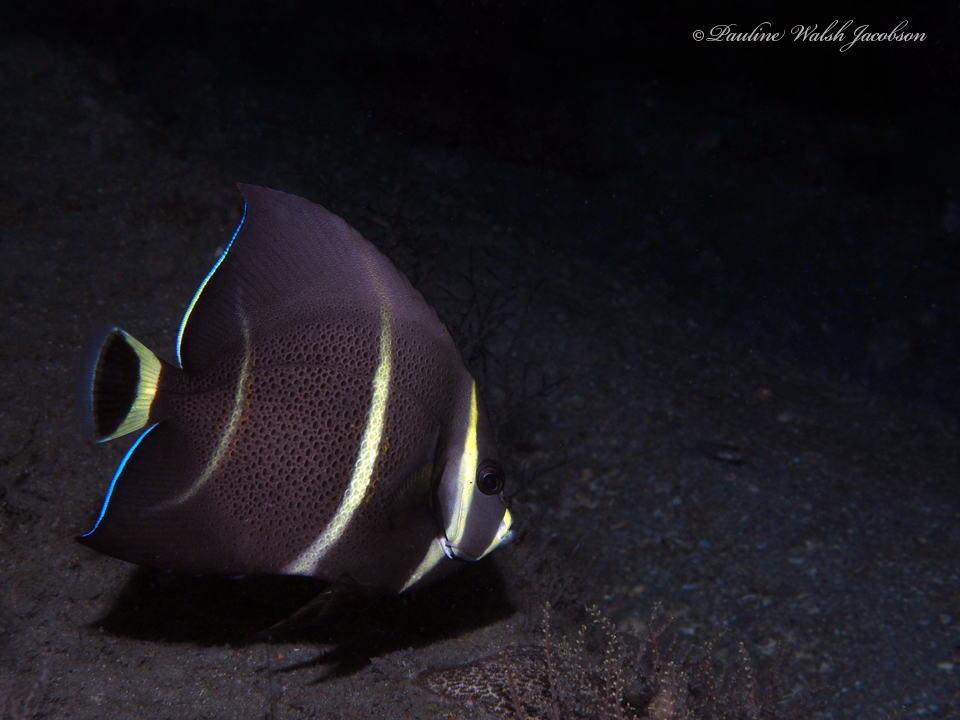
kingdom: Animalia
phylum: Chordata
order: Perciformes
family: Pomacanthidae
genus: Pomacanthus
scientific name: Pomacanthus arcuatus
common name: Gray angelfish
